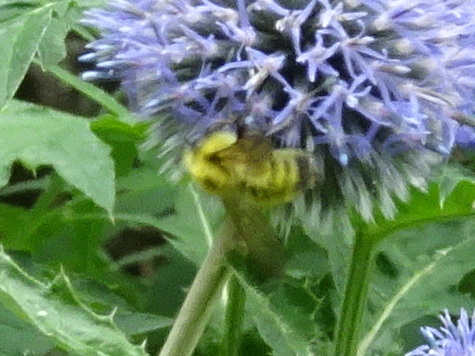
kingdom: Animalia
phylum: Arthropoda
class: Insecta
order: Hymenoptera
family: Apidae
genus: Bombus
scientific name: Bombus perplexus
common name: Confusing bumble bee
